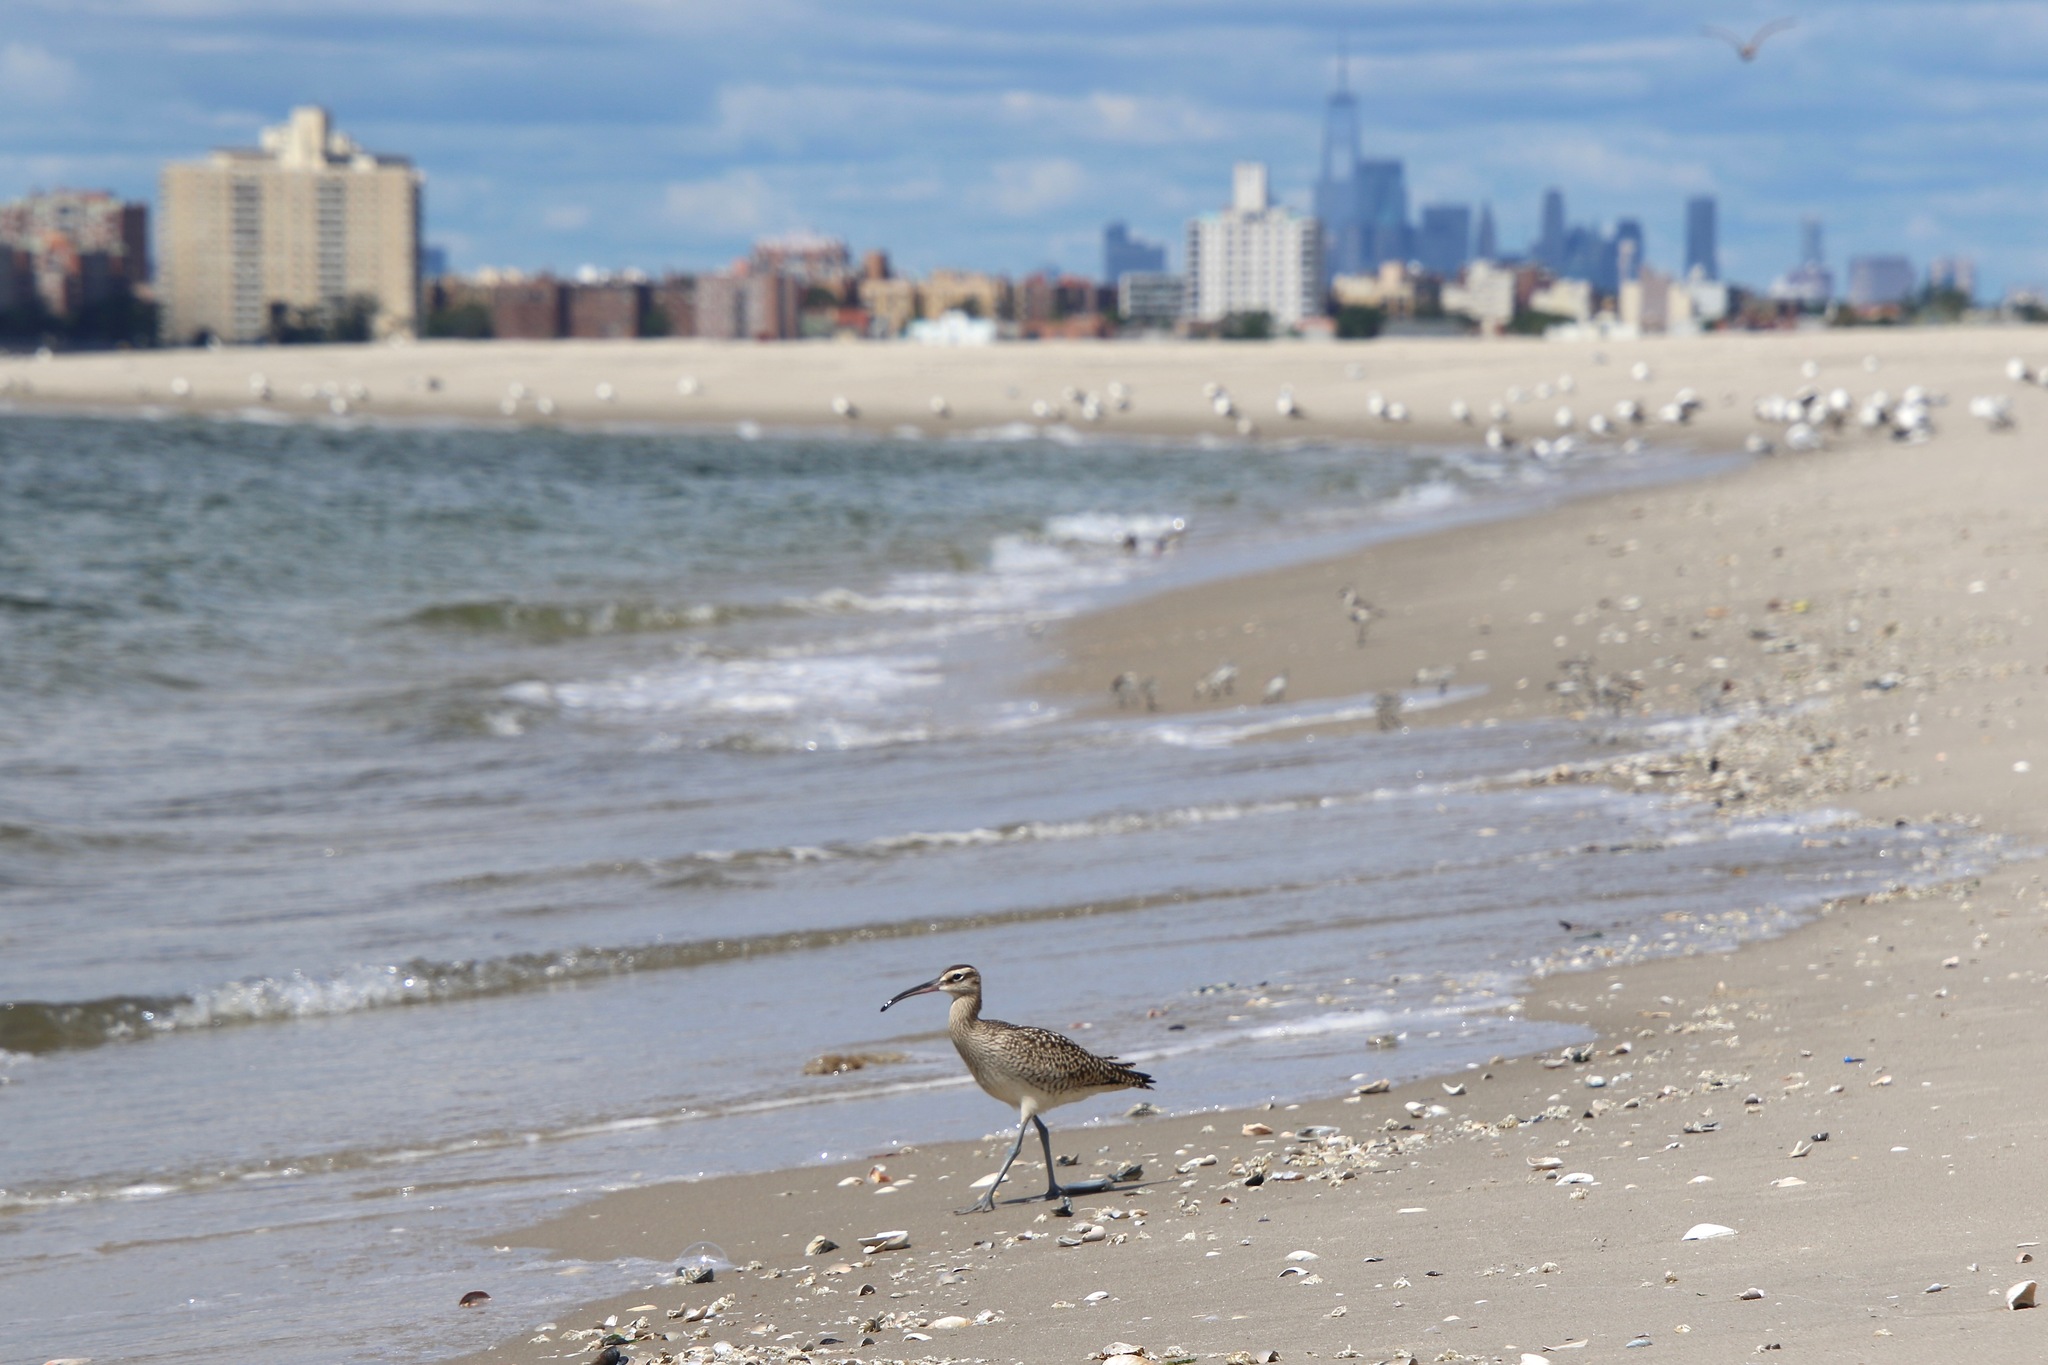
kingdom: Animalia
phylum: Chordata
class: Aves
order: Charadriiformes
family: Scolopacidae
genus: Numenius
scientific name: Numenius phaeopus
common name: Whimbrel
